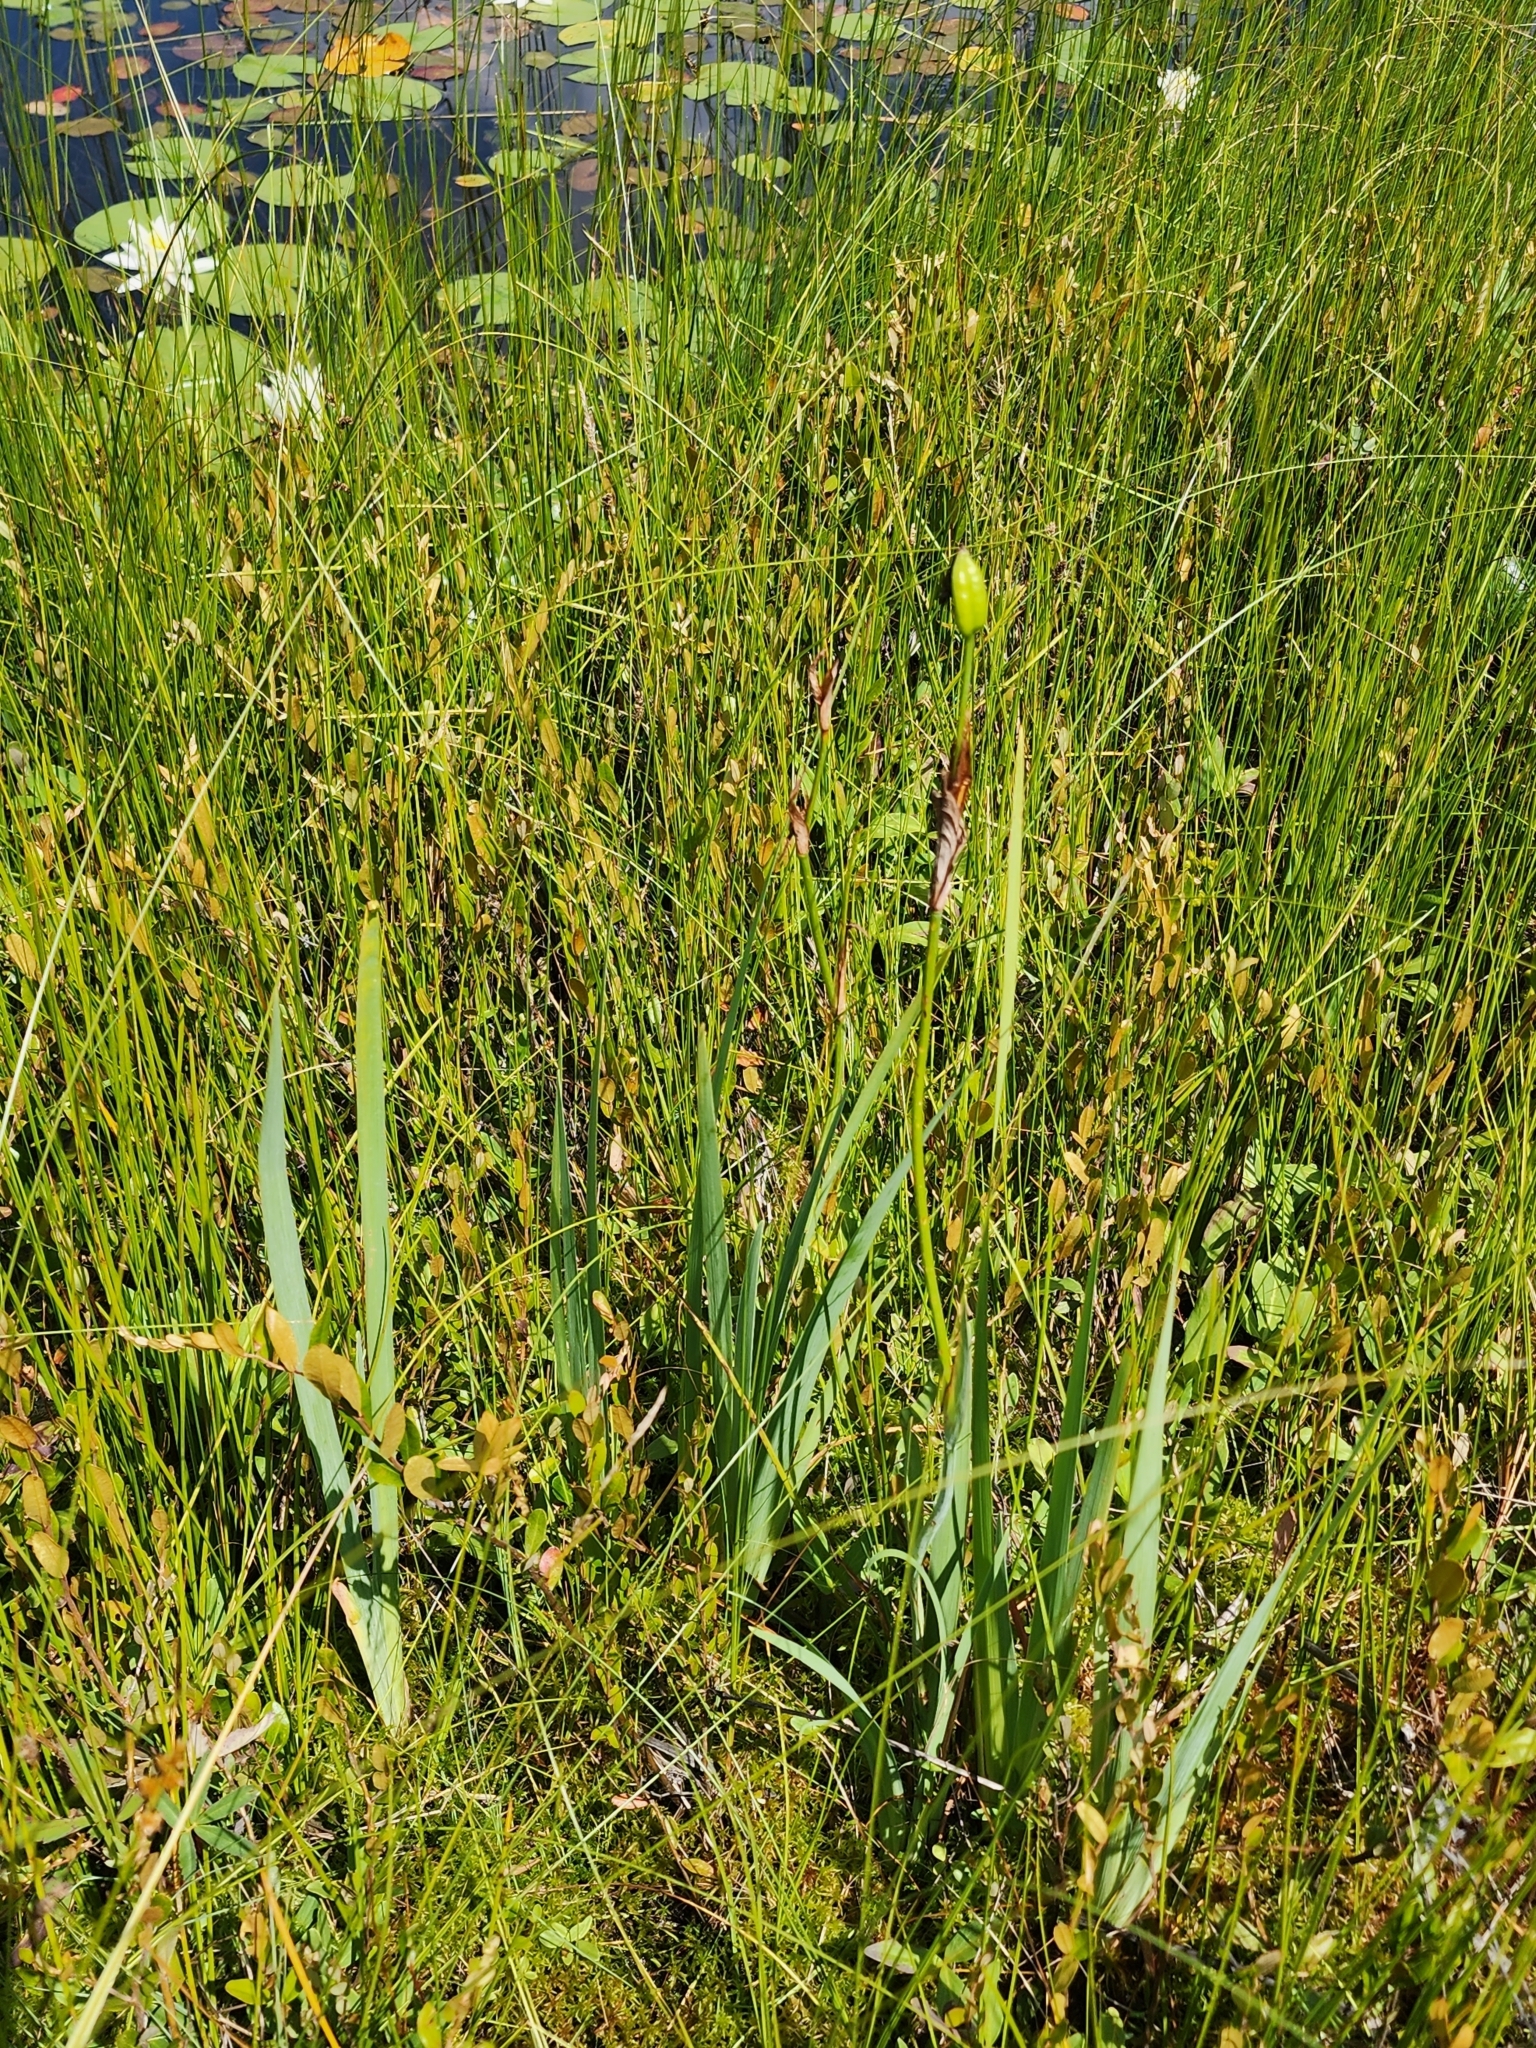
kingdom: Plantae
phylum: Tracheophyta
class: Liliopsida
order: Asparagales
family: Iridaceae
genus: Iris
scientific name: Iris versicolor
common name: Purple iris
